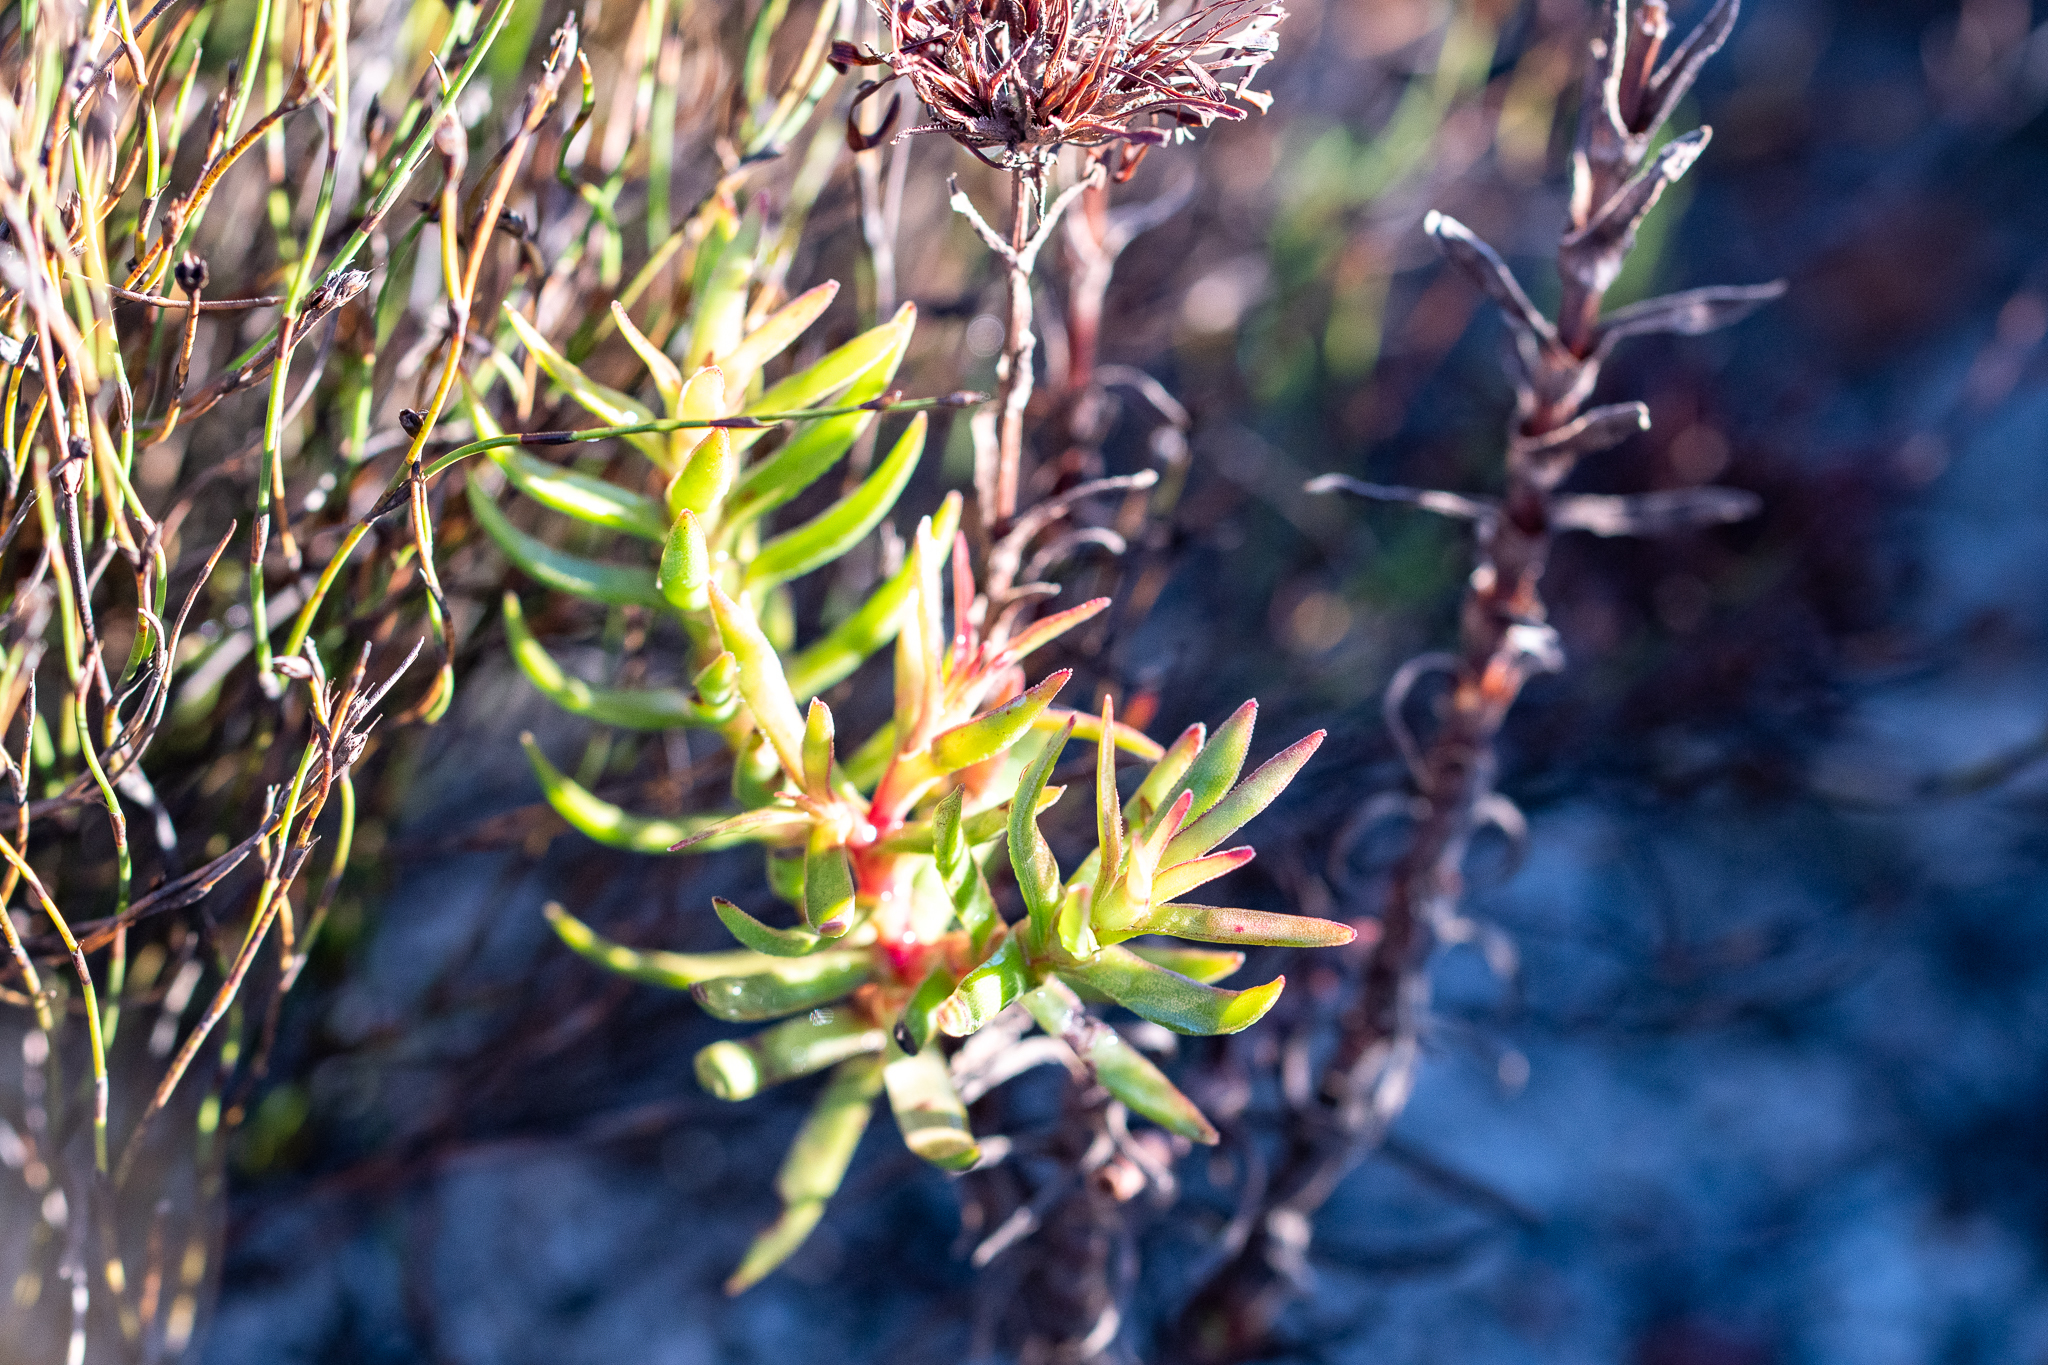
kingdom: Plantae
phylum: Tracheophyta
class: Magnoliopsida
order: Saxifragales
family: Crassulaceae
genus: Crassula
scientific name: Crassula fascicularis
